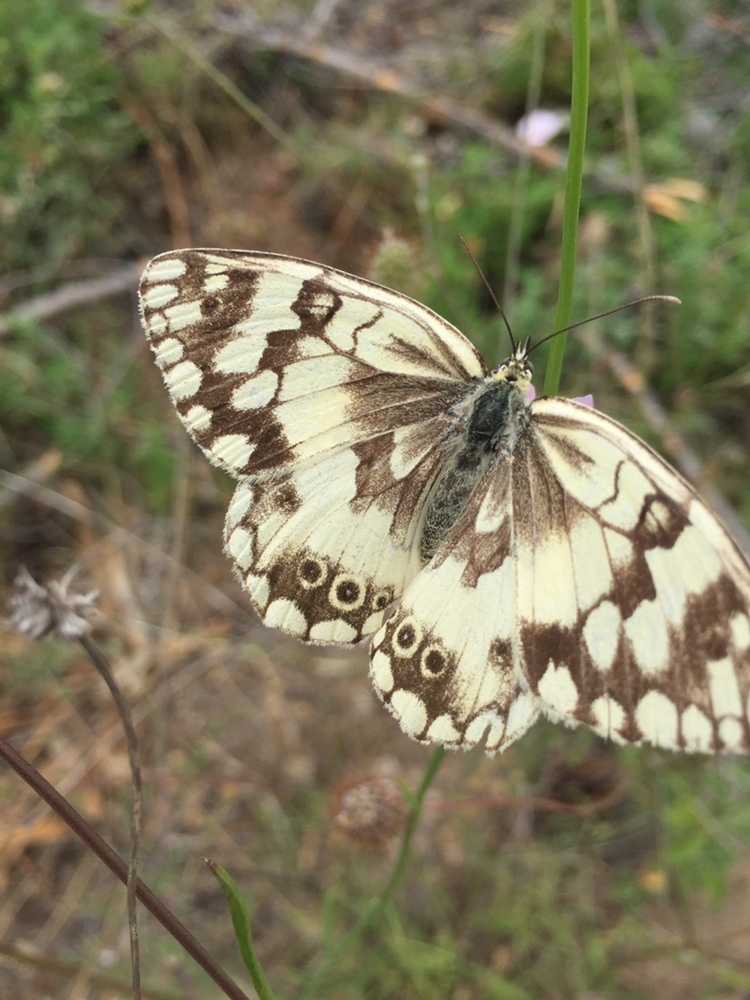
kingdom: Animalia
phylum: Arthropoda
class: Insecta
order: Lepidoptera
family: Nymphalidae
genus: Melanargia
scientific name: Melanargia larissa
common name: Balkan marbled white
